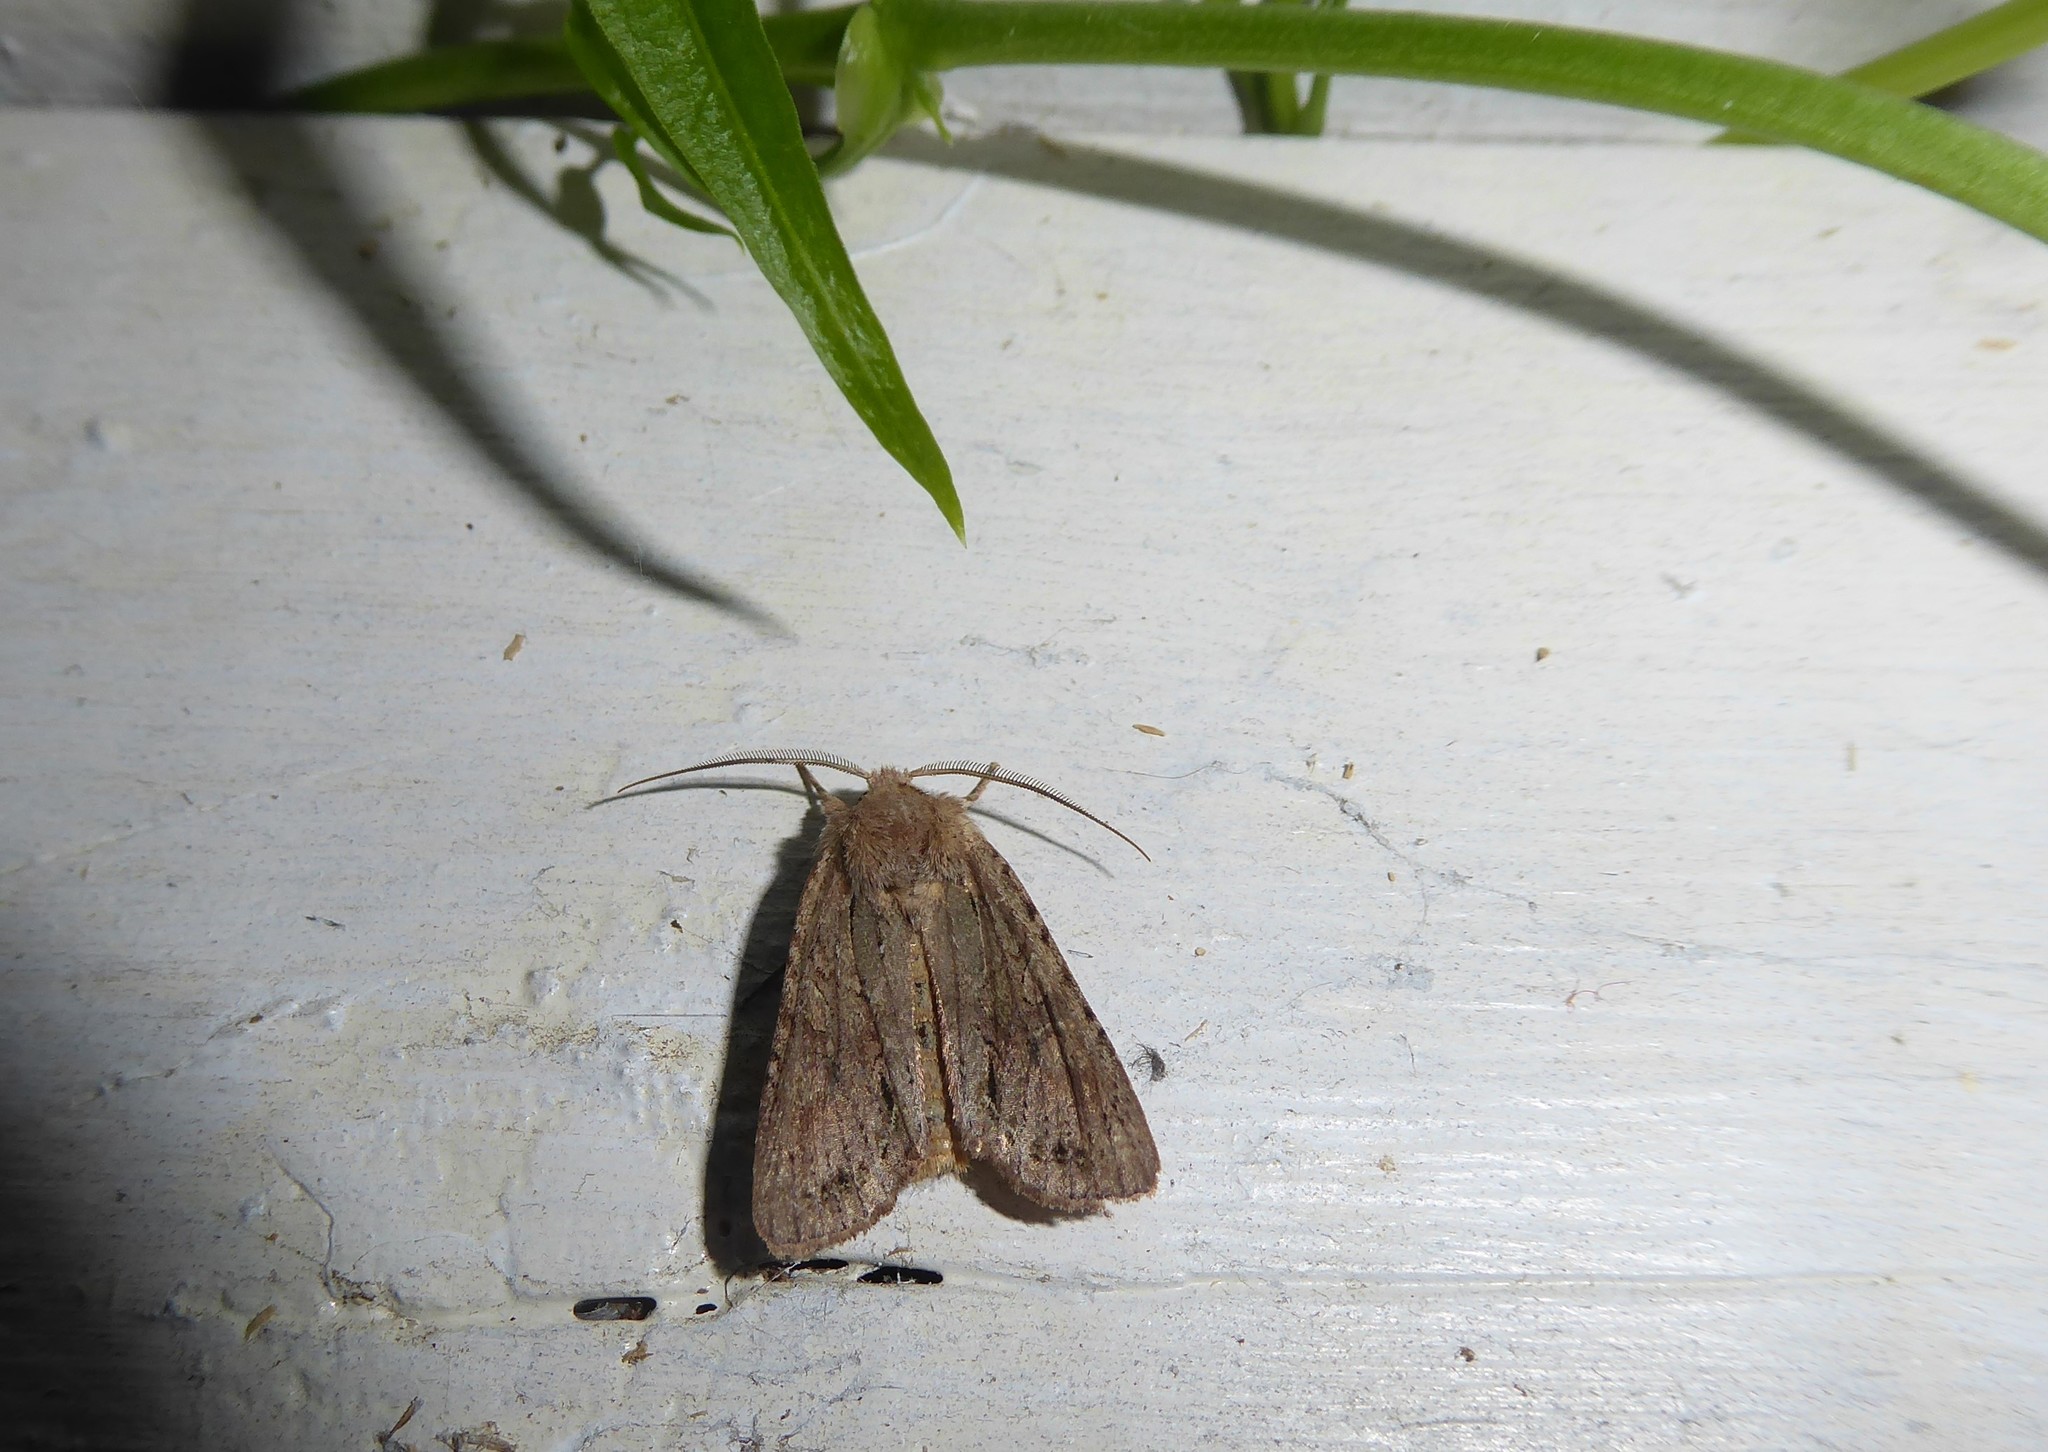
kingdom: Animalia
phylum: Arthropoda
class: Insecta
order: Lepidoptera
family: Noctuidae
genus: Ichneutica
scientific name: Ichneutica
